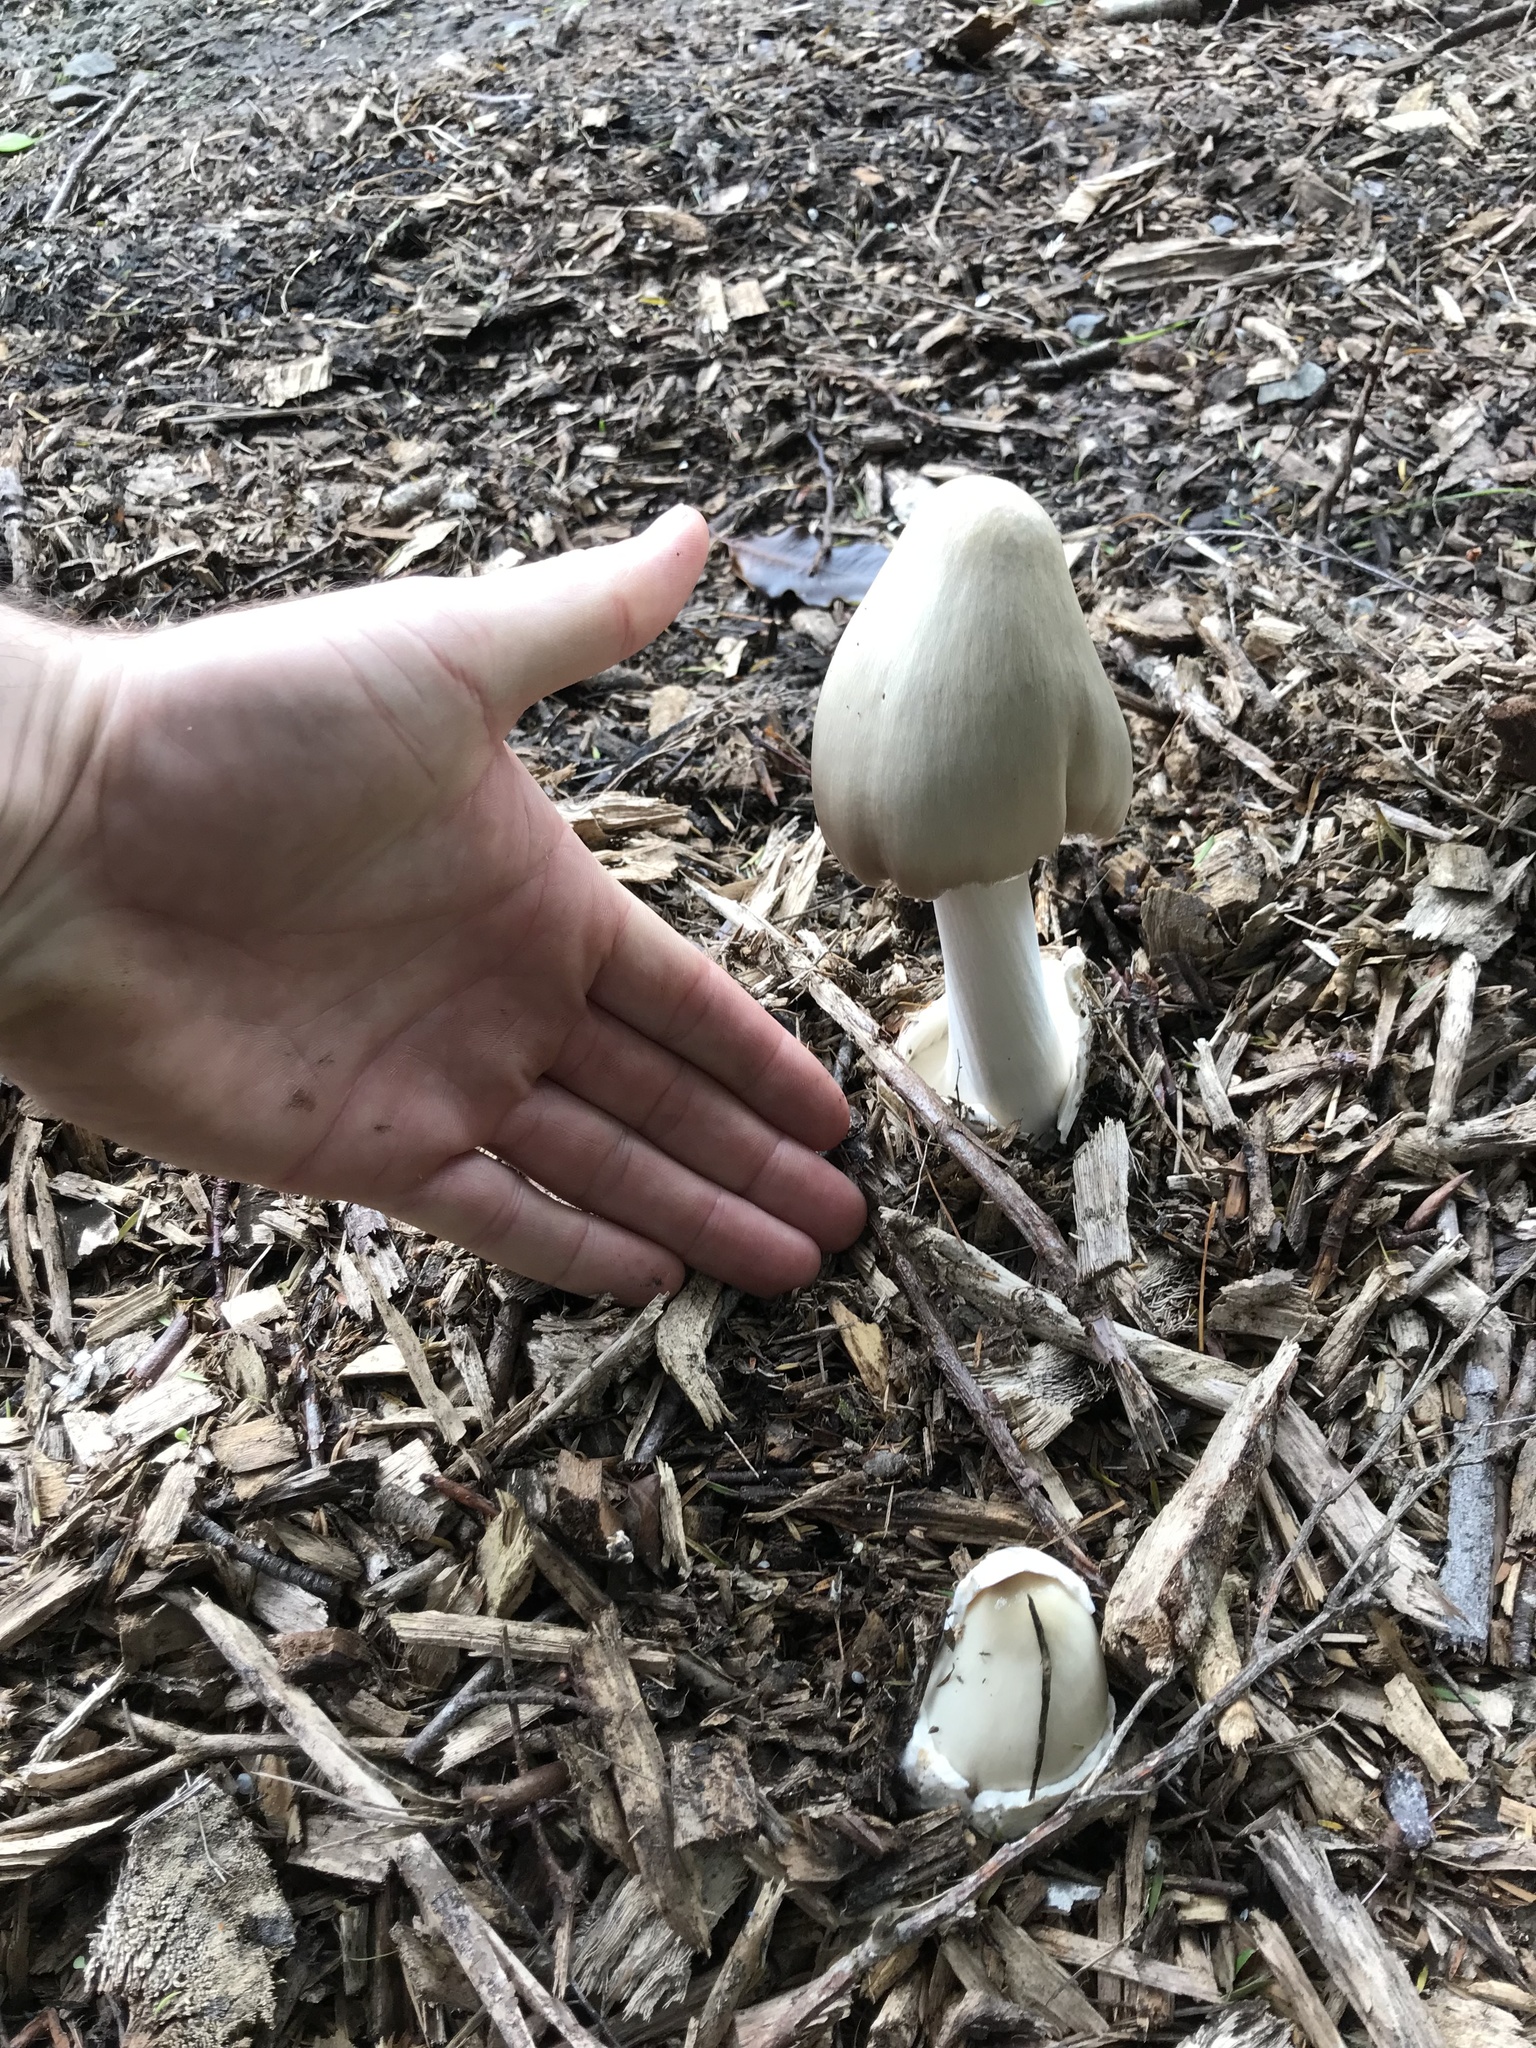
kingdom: Fungi
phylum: Basidiomycota
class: Agaricomycetes
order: Agaricales
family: Pluteaceae
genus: Volvopluteus
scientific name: Volvopluteus gloiocephalus
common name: Stubble rosegill
